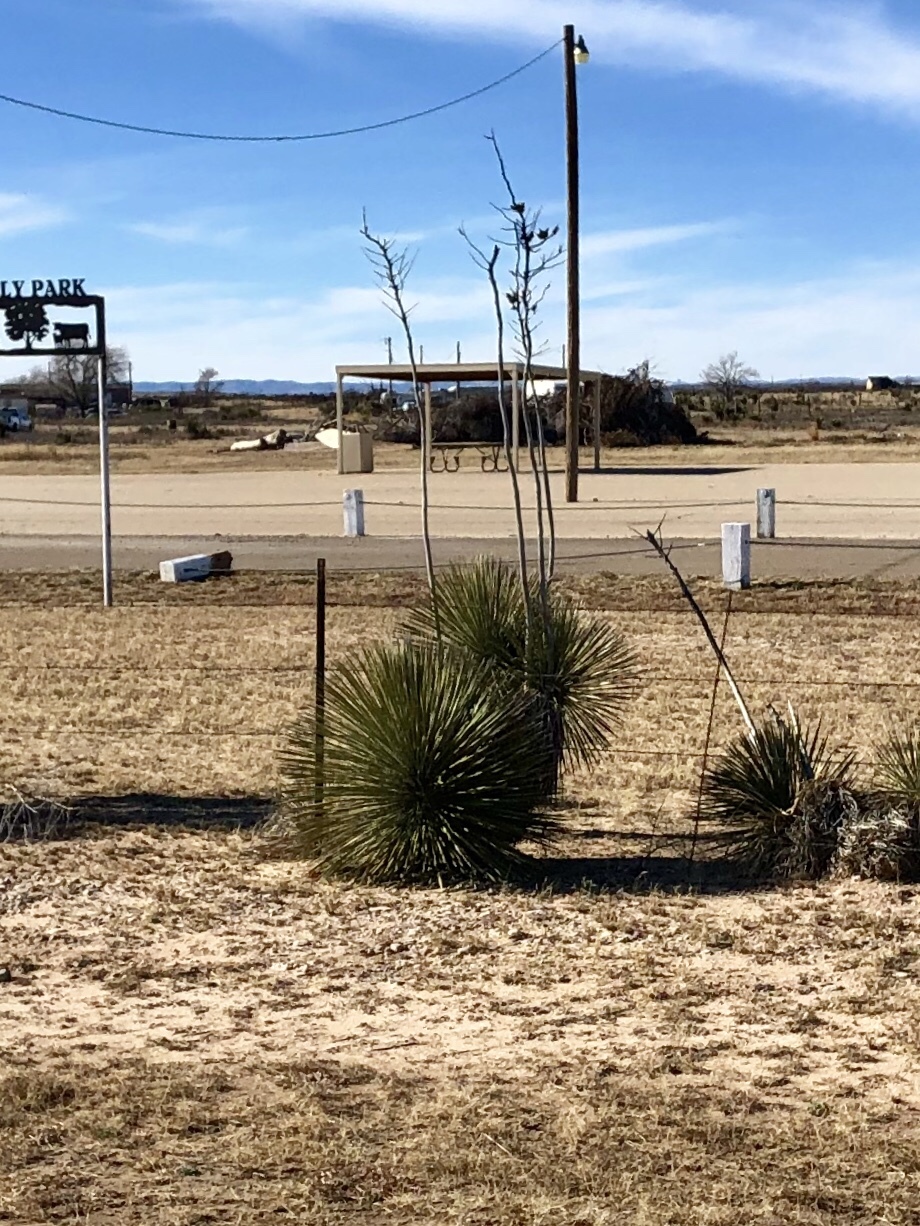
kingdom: Plantae
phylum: Tracheophyta
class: Liliopsida
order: Asparagales
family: Asparagaceae
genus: Yucca
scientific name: Yucca elata
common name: Palmella
